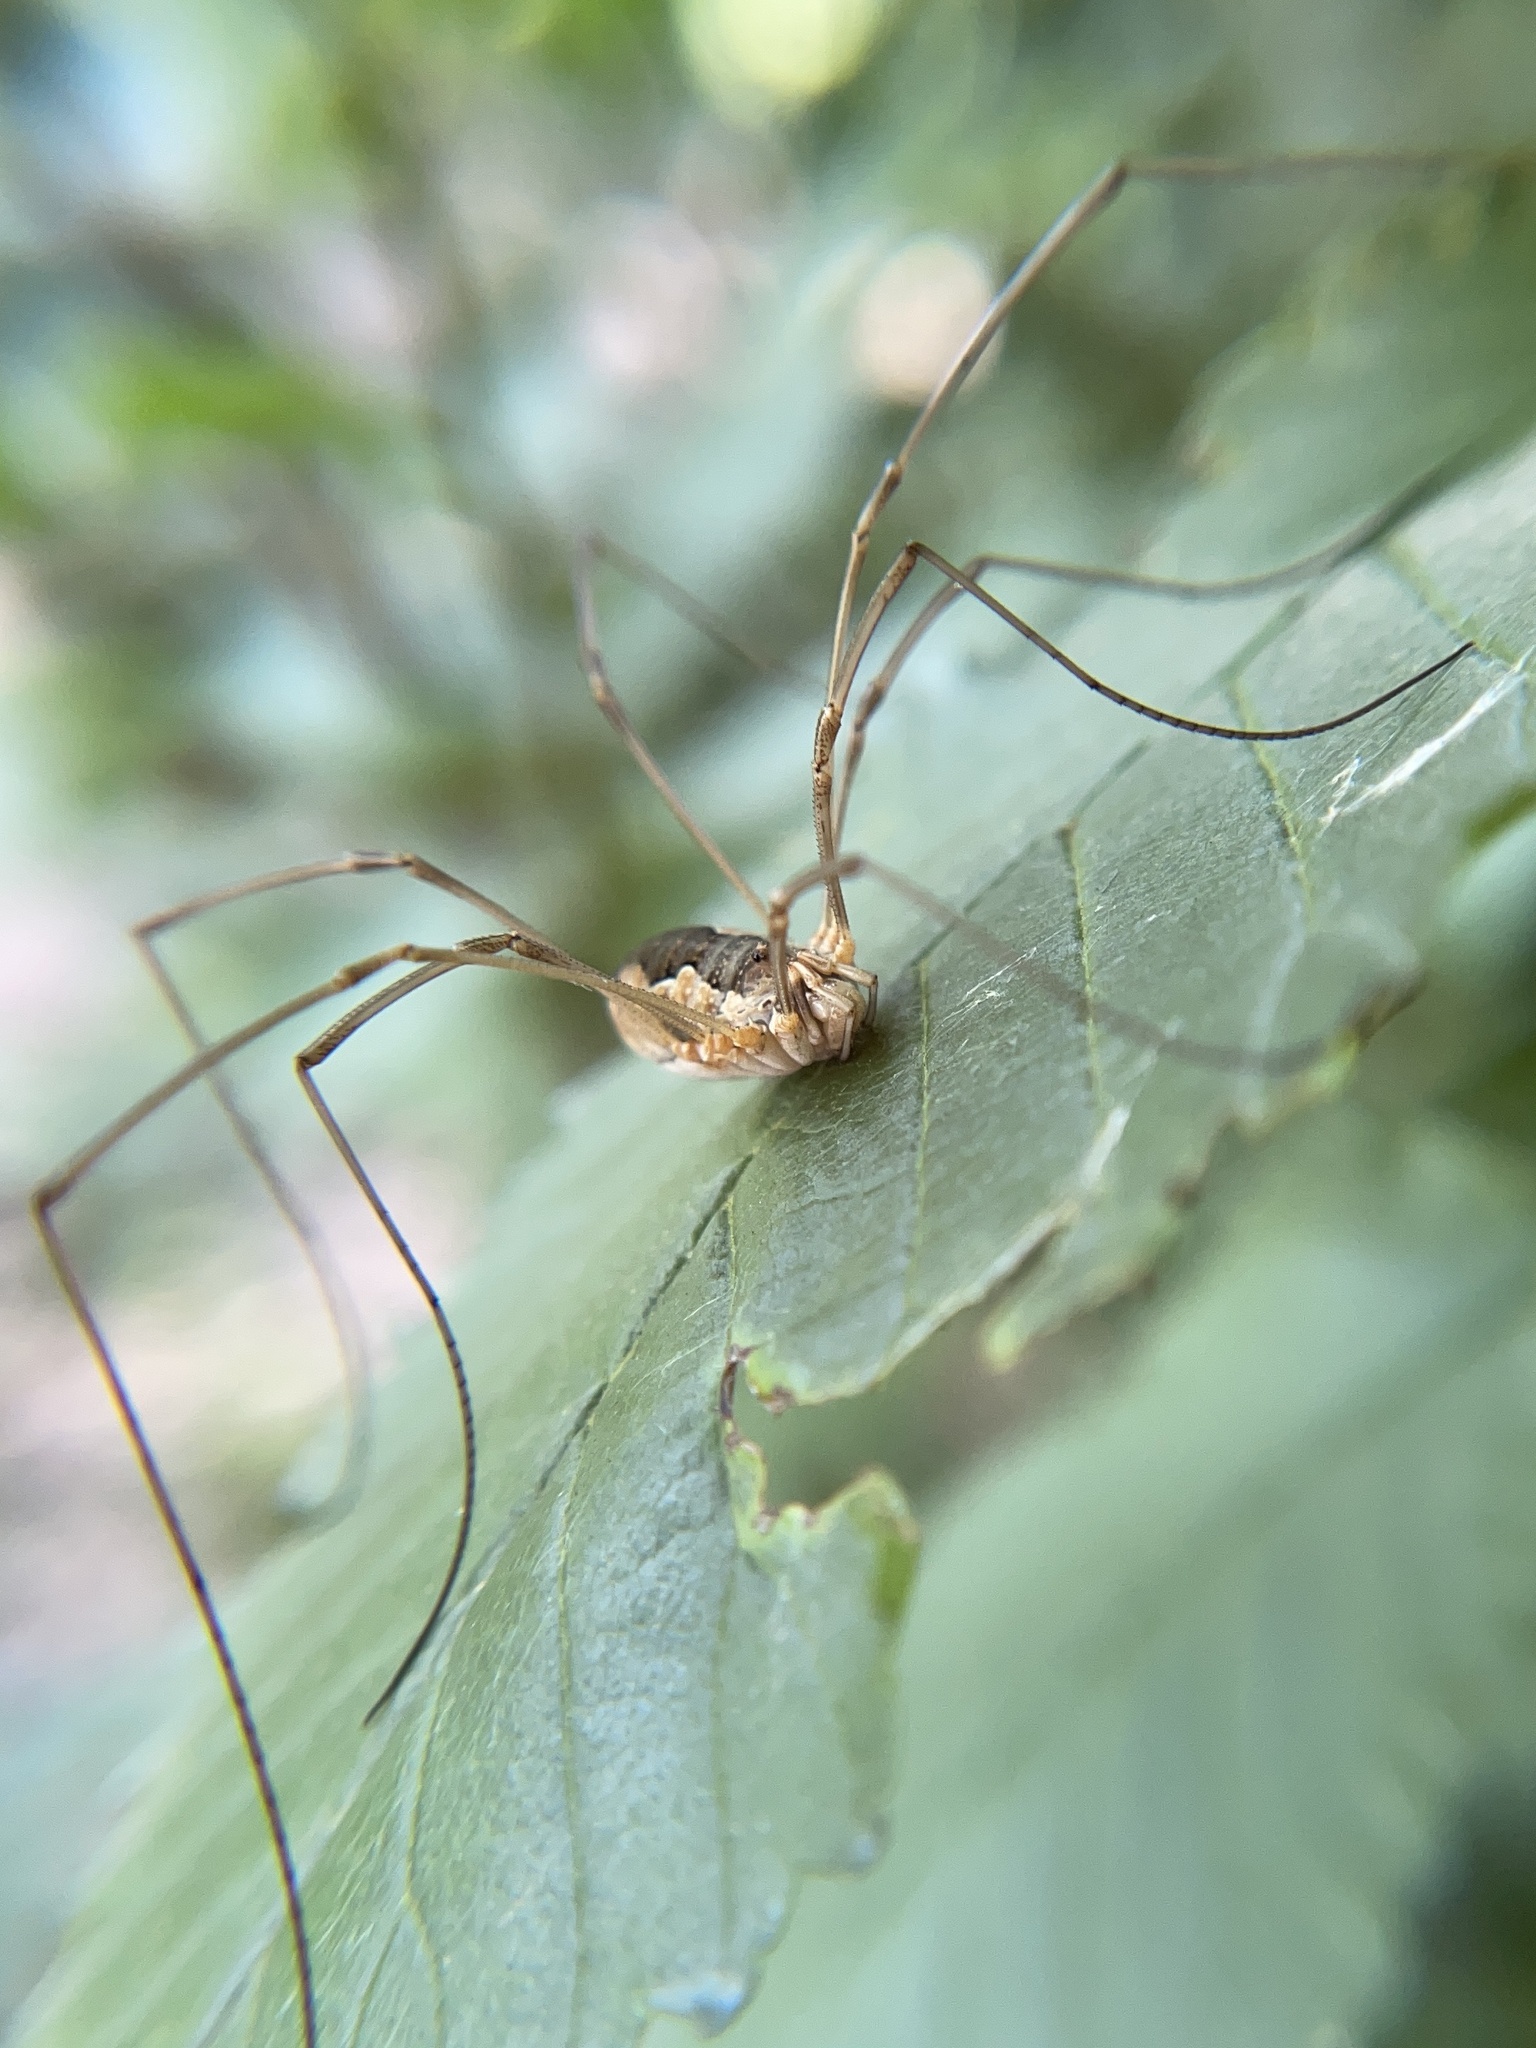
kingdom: Animalia
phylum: Arthropoda
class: Arachnida
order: Opiliones
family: Phalangiidae
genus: Phalangium
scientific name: Phalangium opilio
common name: Daddy longleg
